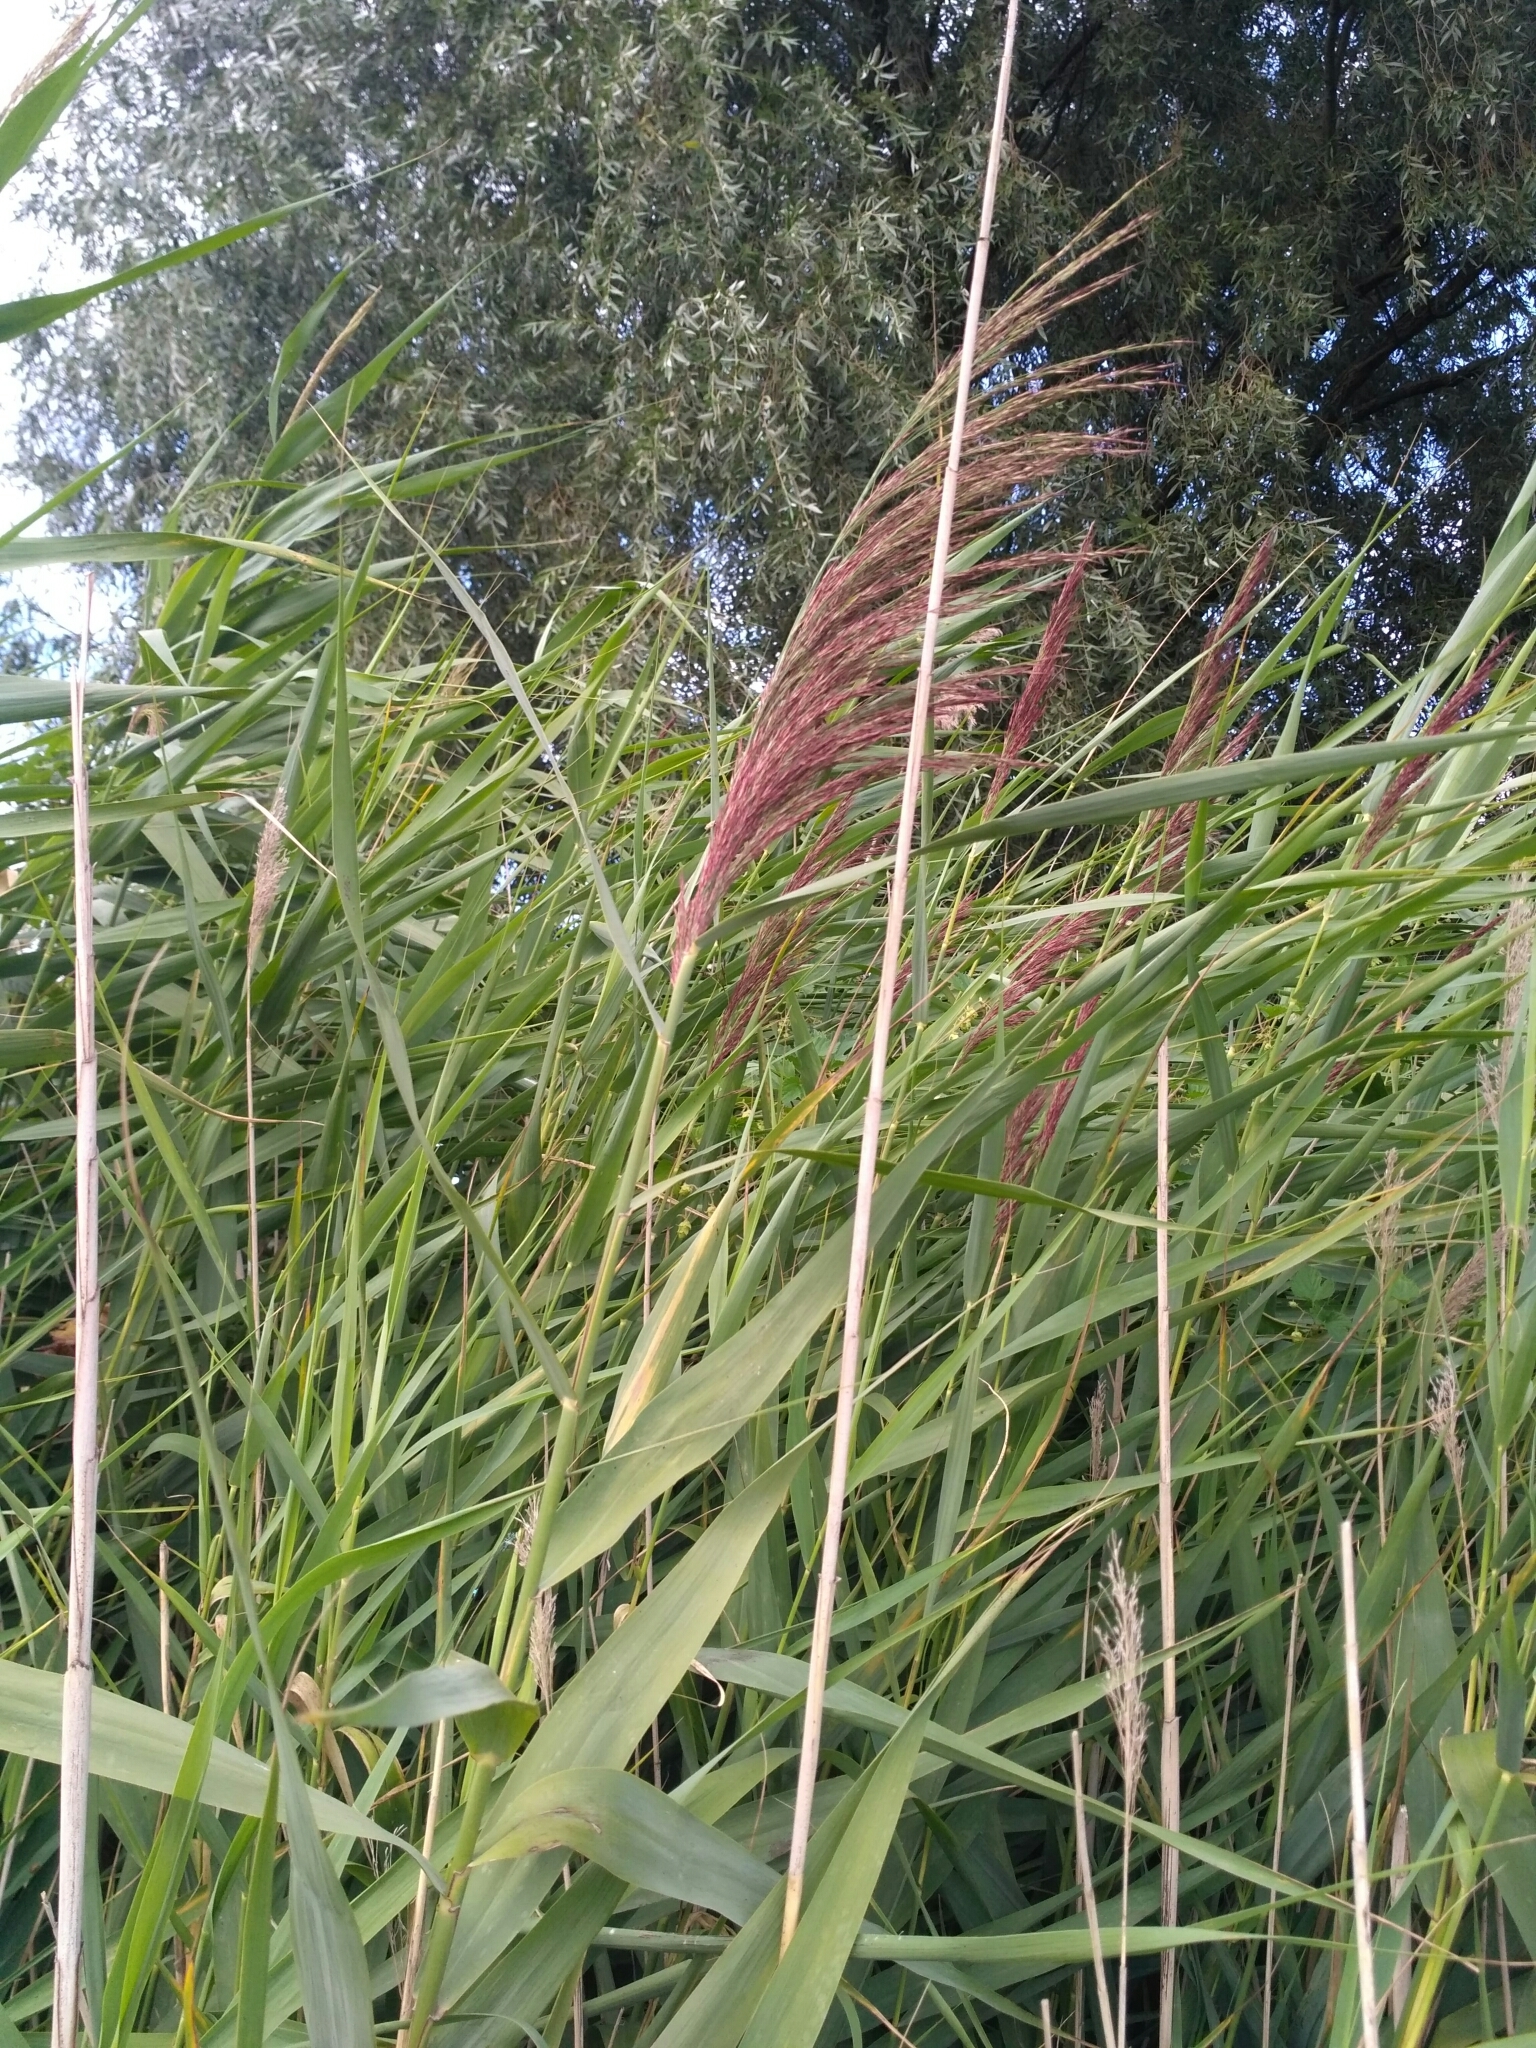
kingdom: Plantae
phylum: Tracheophyta
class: Liliopsida
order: Poales
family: Poaceae
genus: Phragmites
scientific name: Phragmites australis
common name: Common reed
